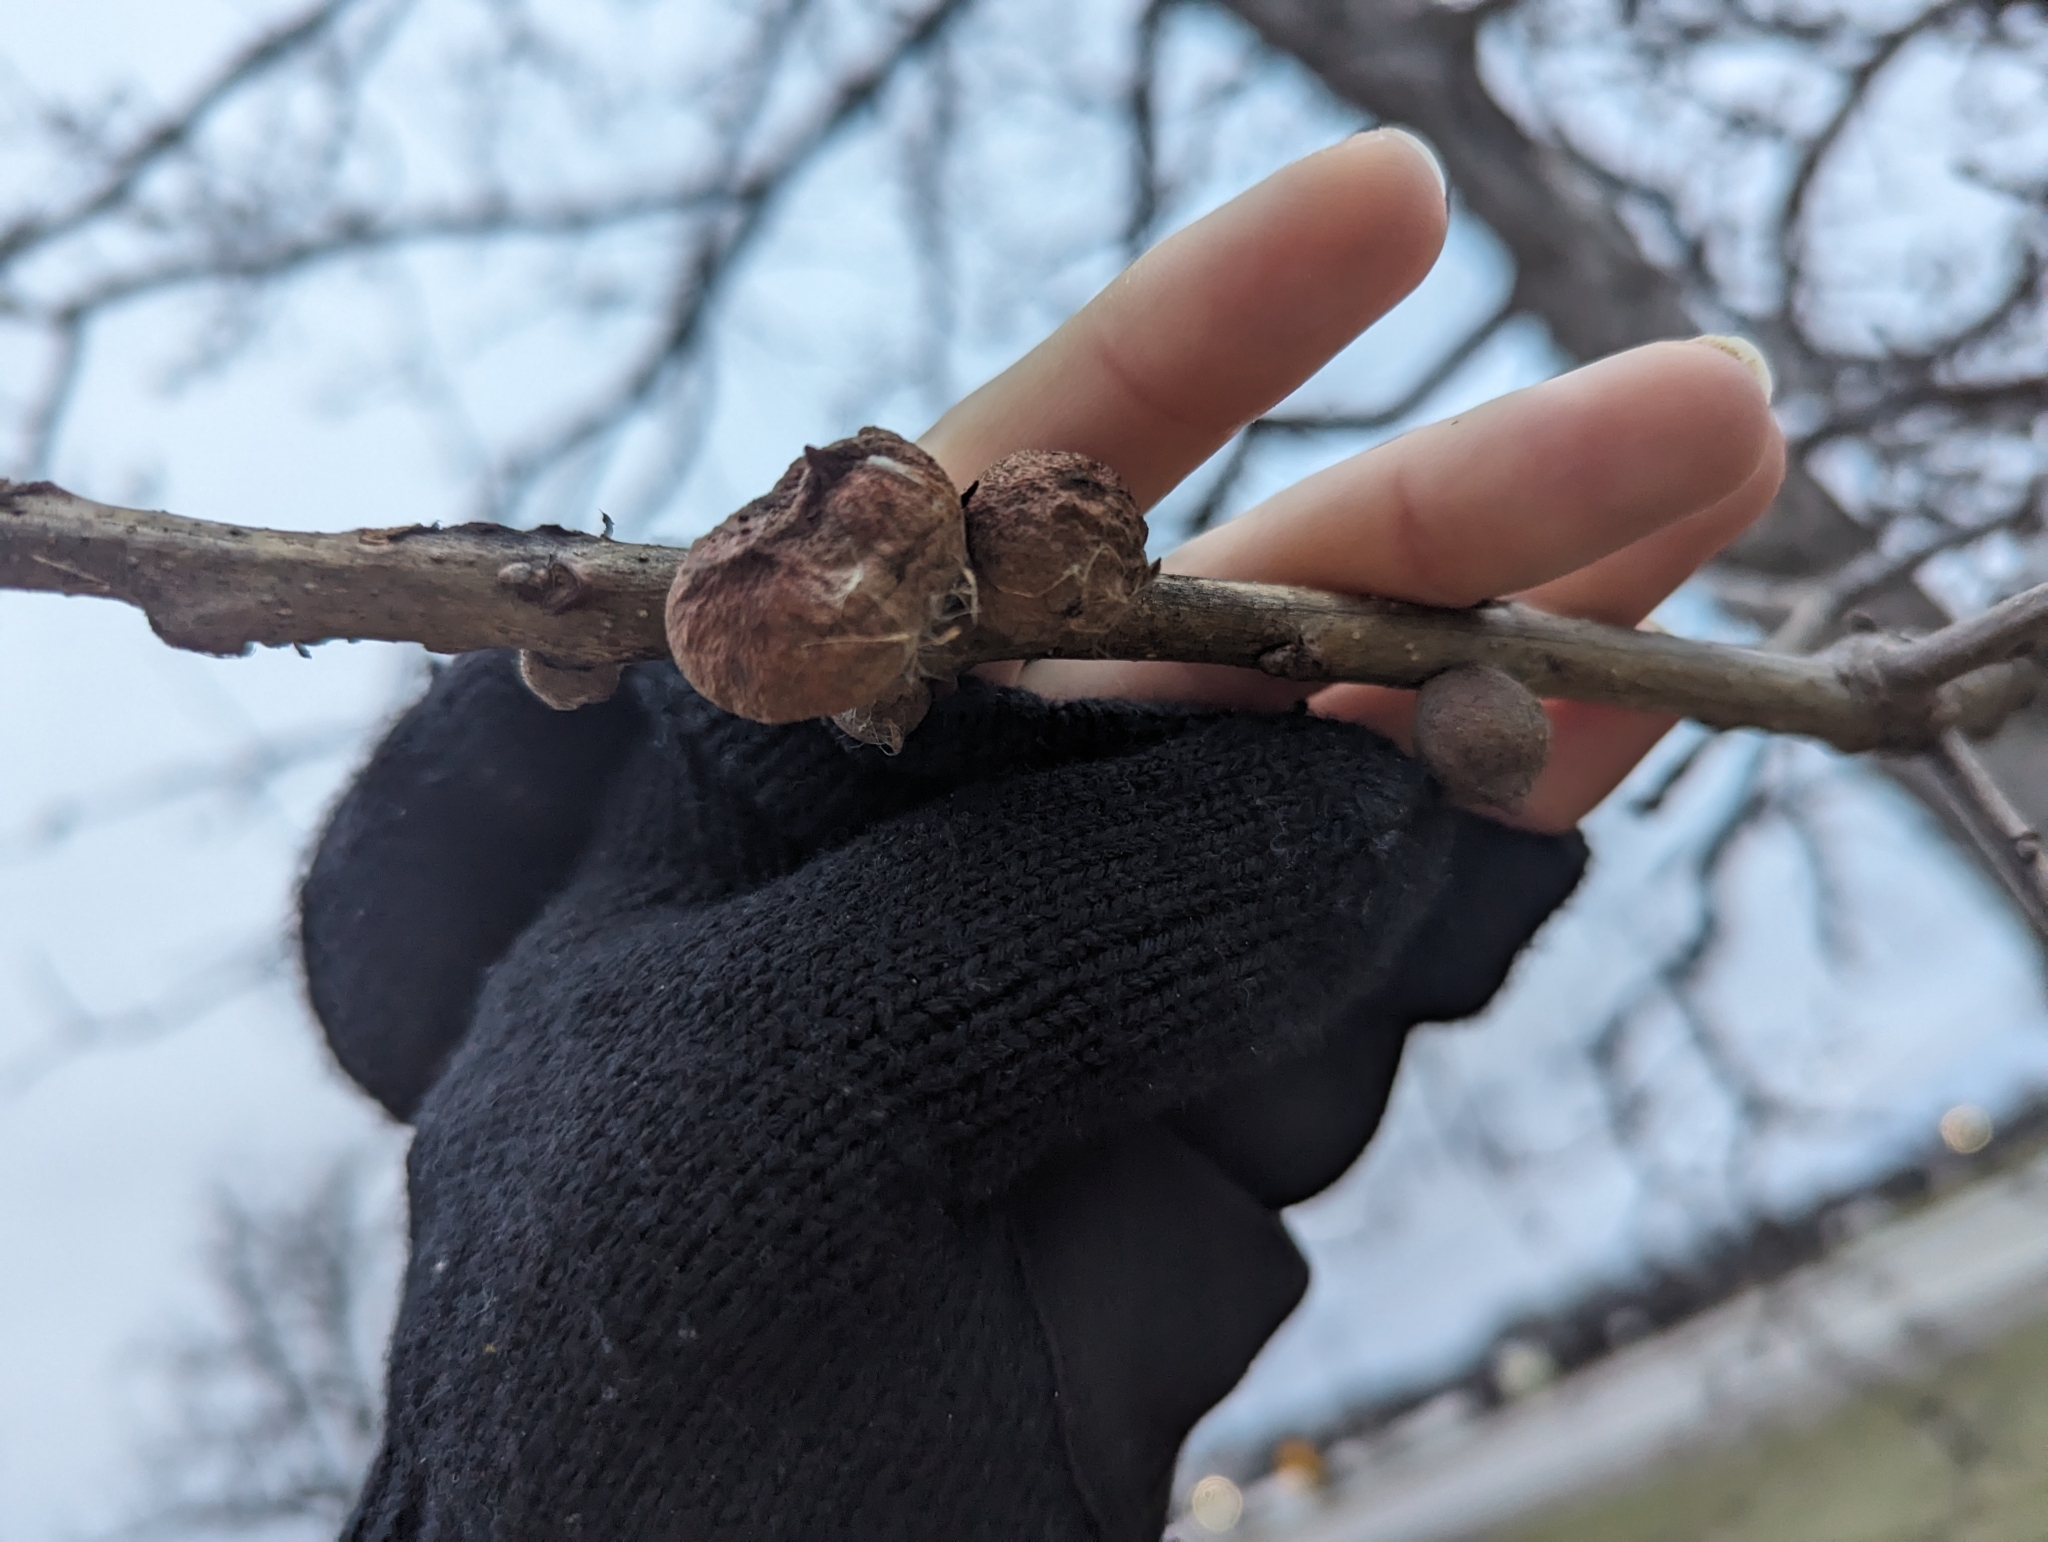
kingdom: Animalia
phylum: Arthropoda
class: Insecta
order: Hymenoptera
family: Cynipidae
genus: Disholcaspis
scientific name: Disholcaspis
